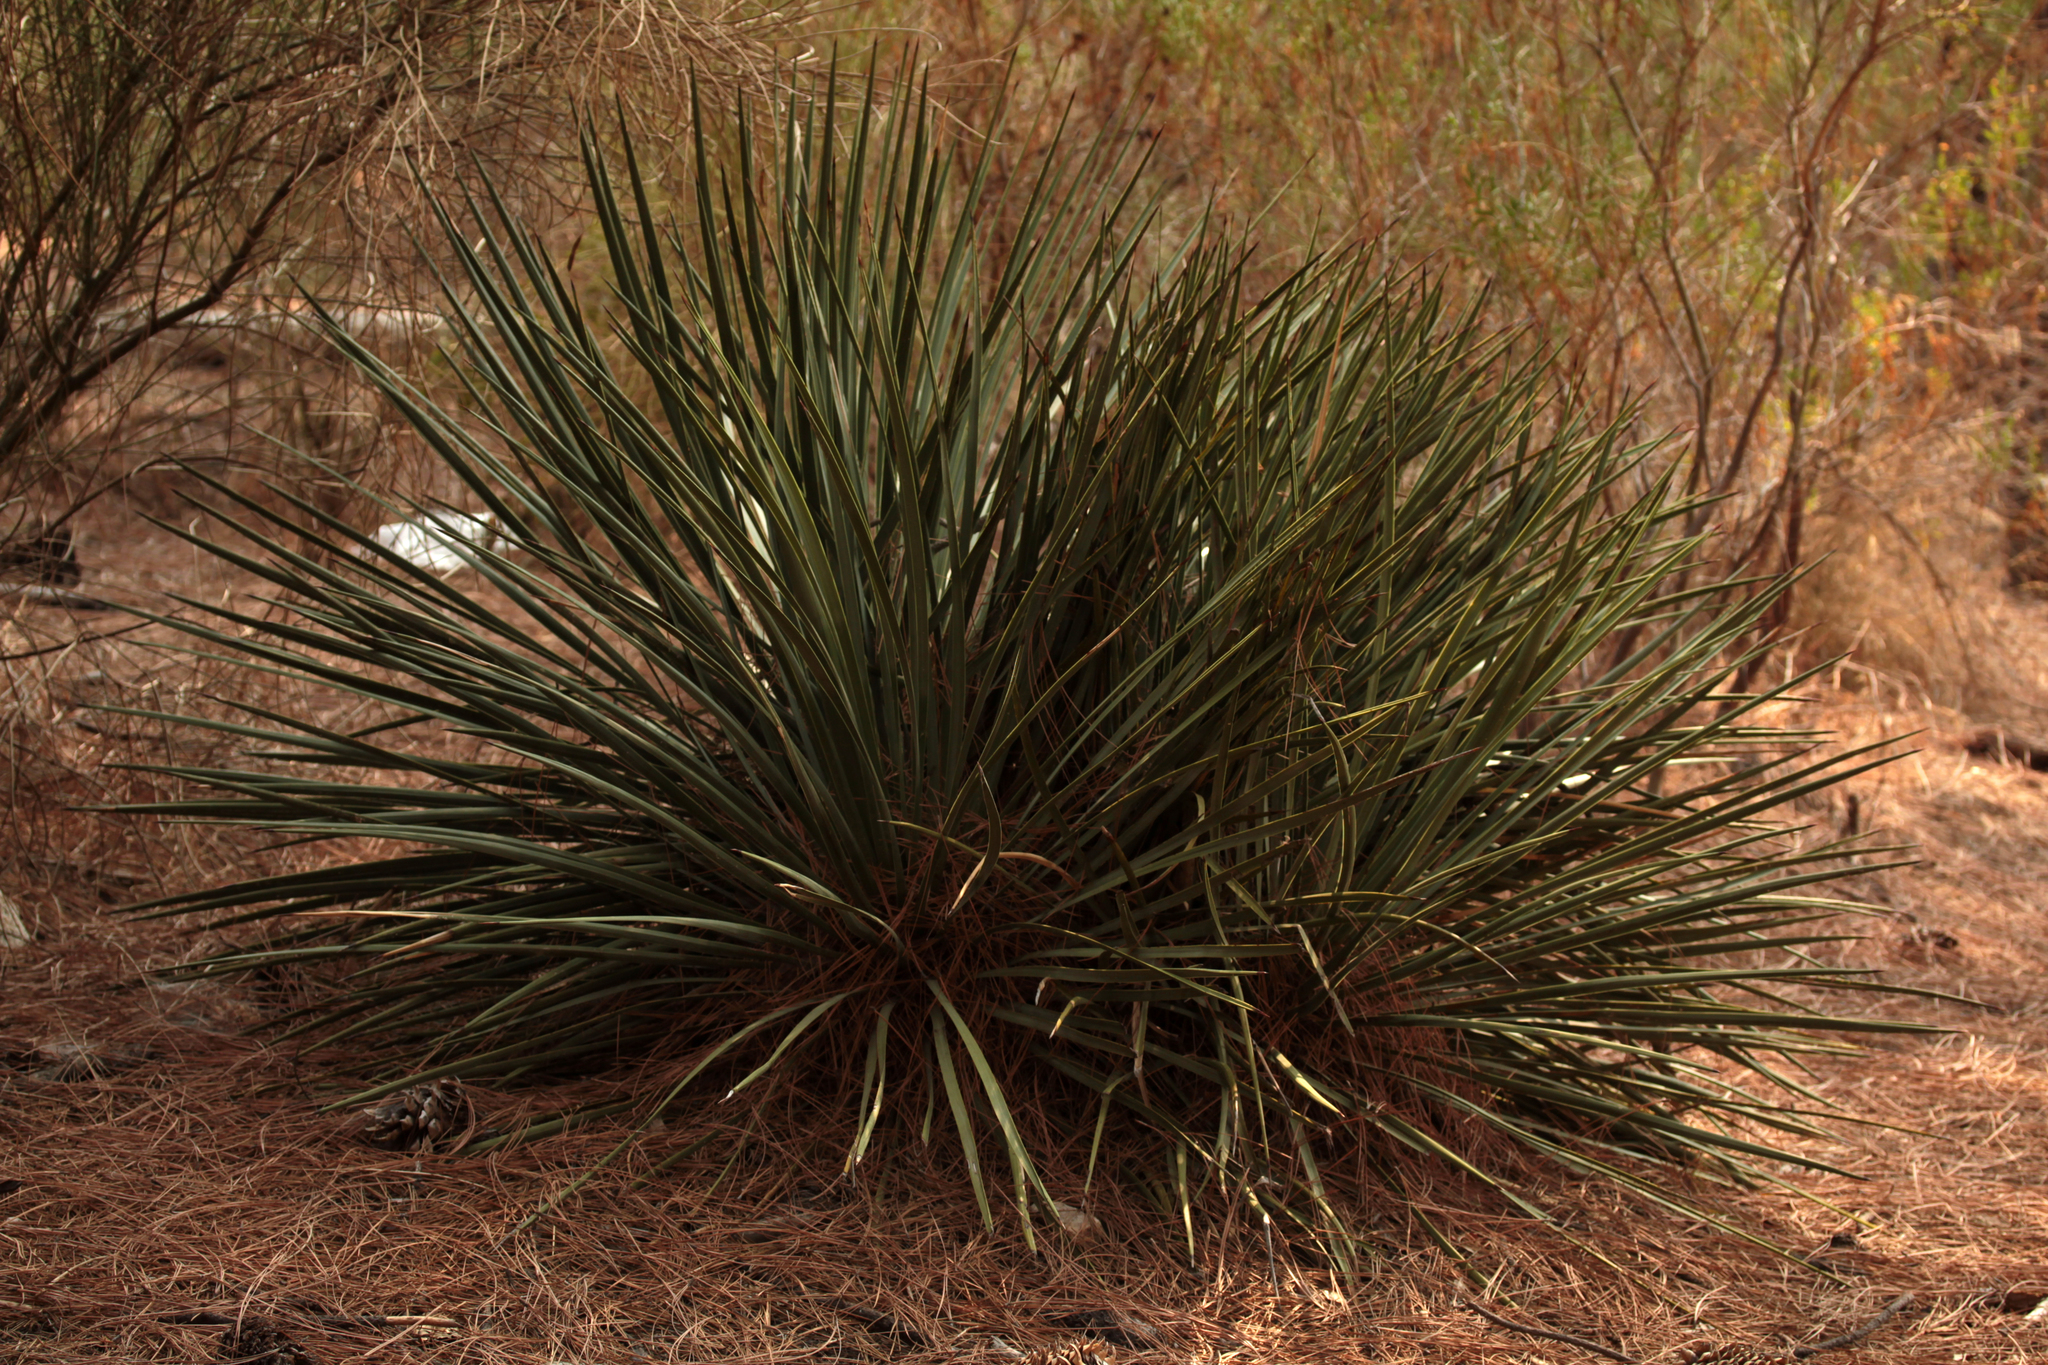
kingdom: Plantae
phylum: Tracheophyta
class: Liliopsida
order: Asparagales
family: Asparagaceae
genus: Hesperoyucca
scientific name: Hesperoyucca whipplei
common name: Our lord's-candle
